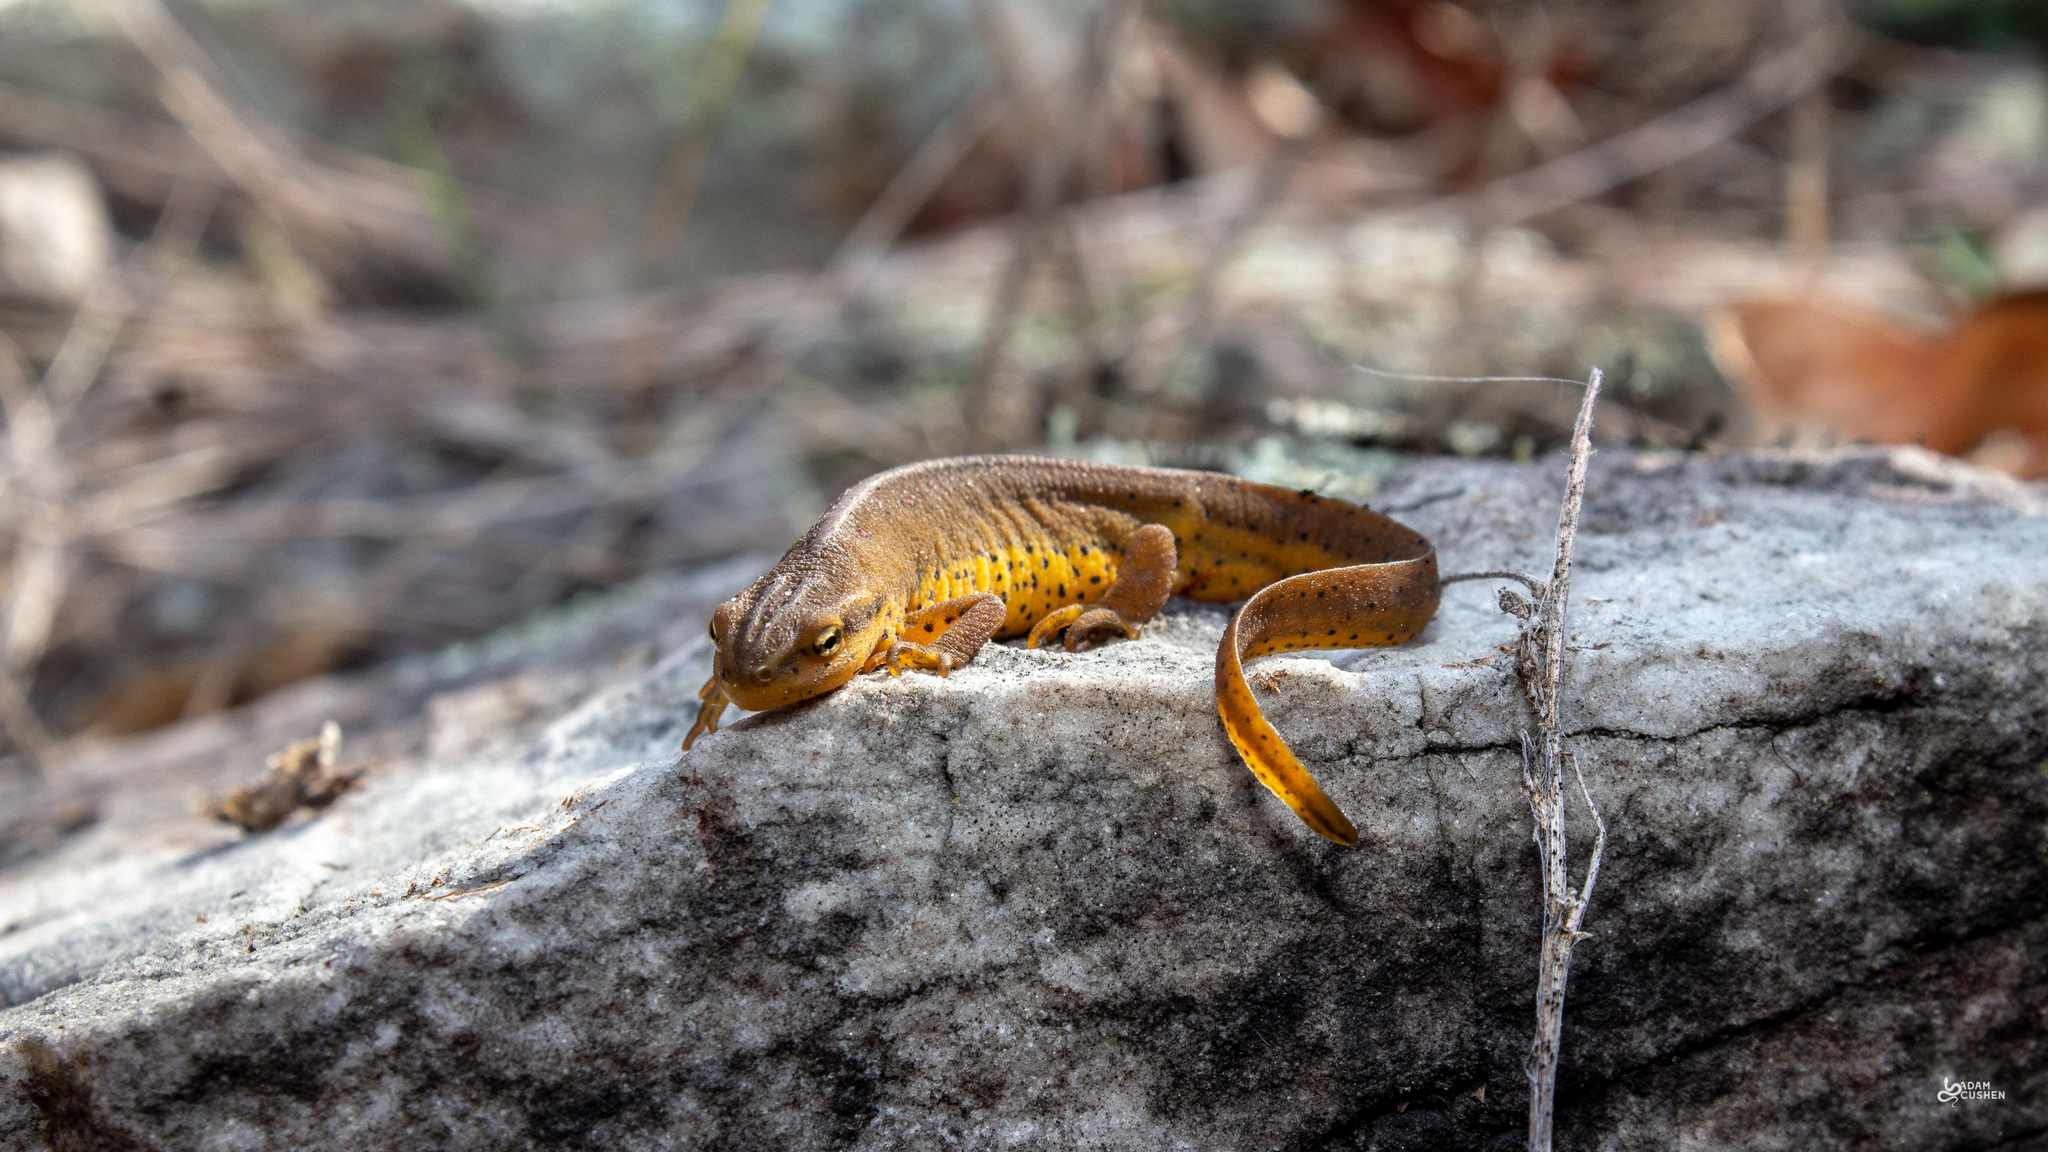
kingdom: Animalia
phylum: Chordata
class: Amphibia
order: Caudata
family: Salamandridae
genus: Notophthalmus
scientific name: Notophthalmus viridescens
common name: Eastern newt
